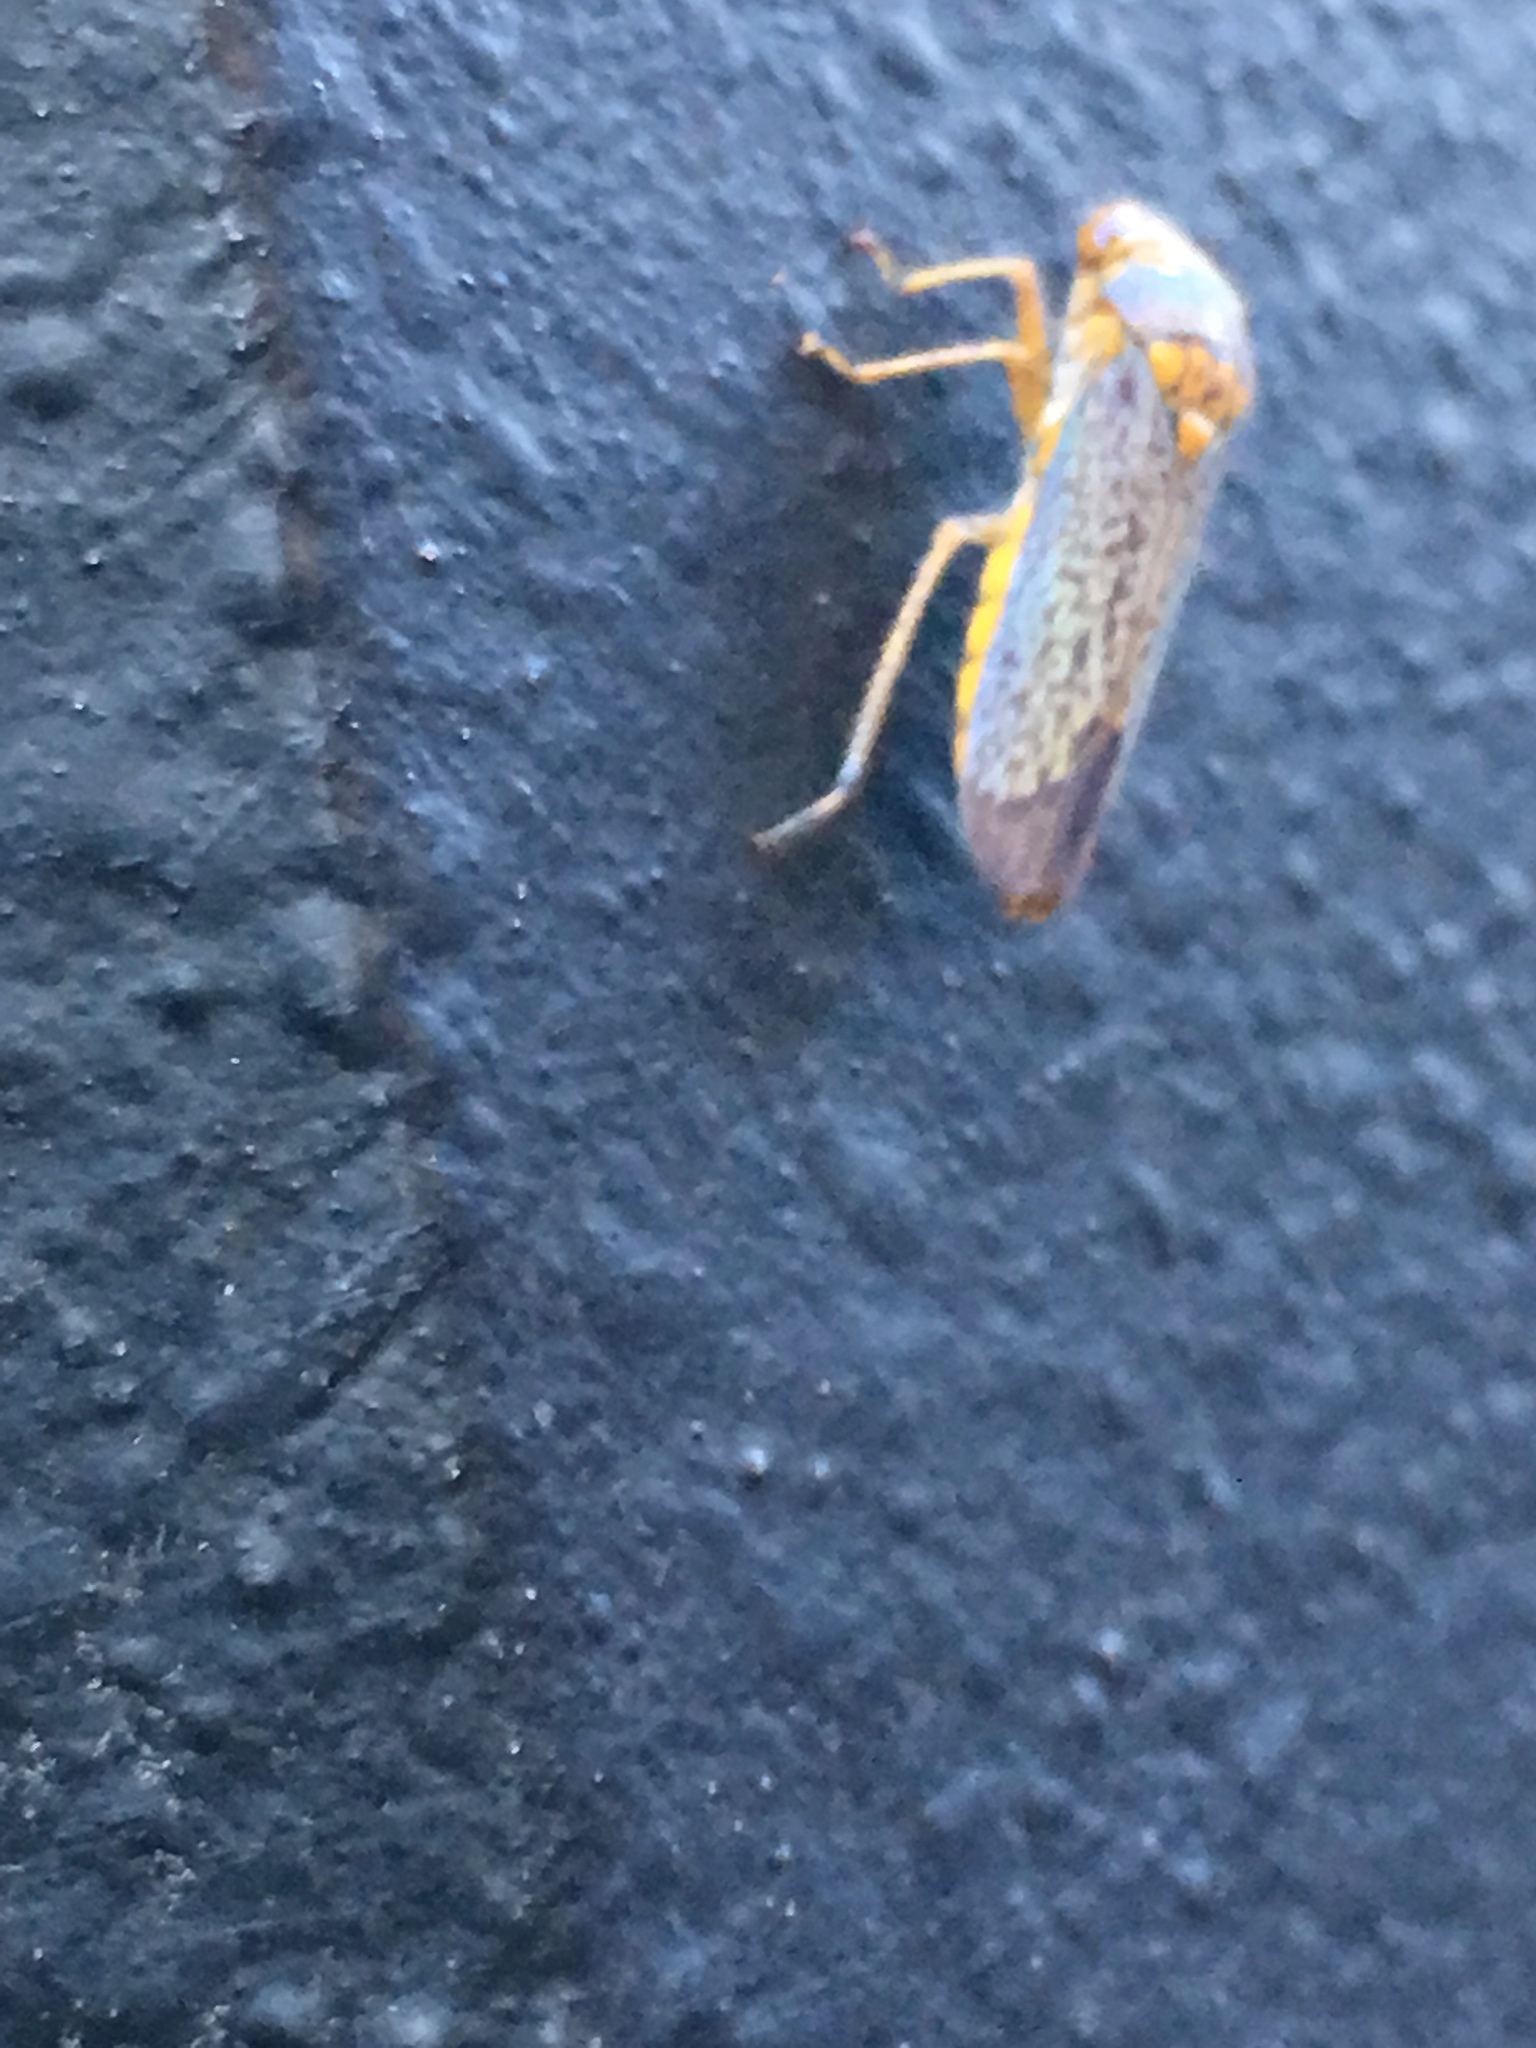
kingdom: Animalia
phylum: Arthropoda
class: Insecta
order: Hemiptera
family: Cicadellidae
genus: Oncometopia
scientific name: Oncometopia orbona
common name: Broad-headed sharpshooter
